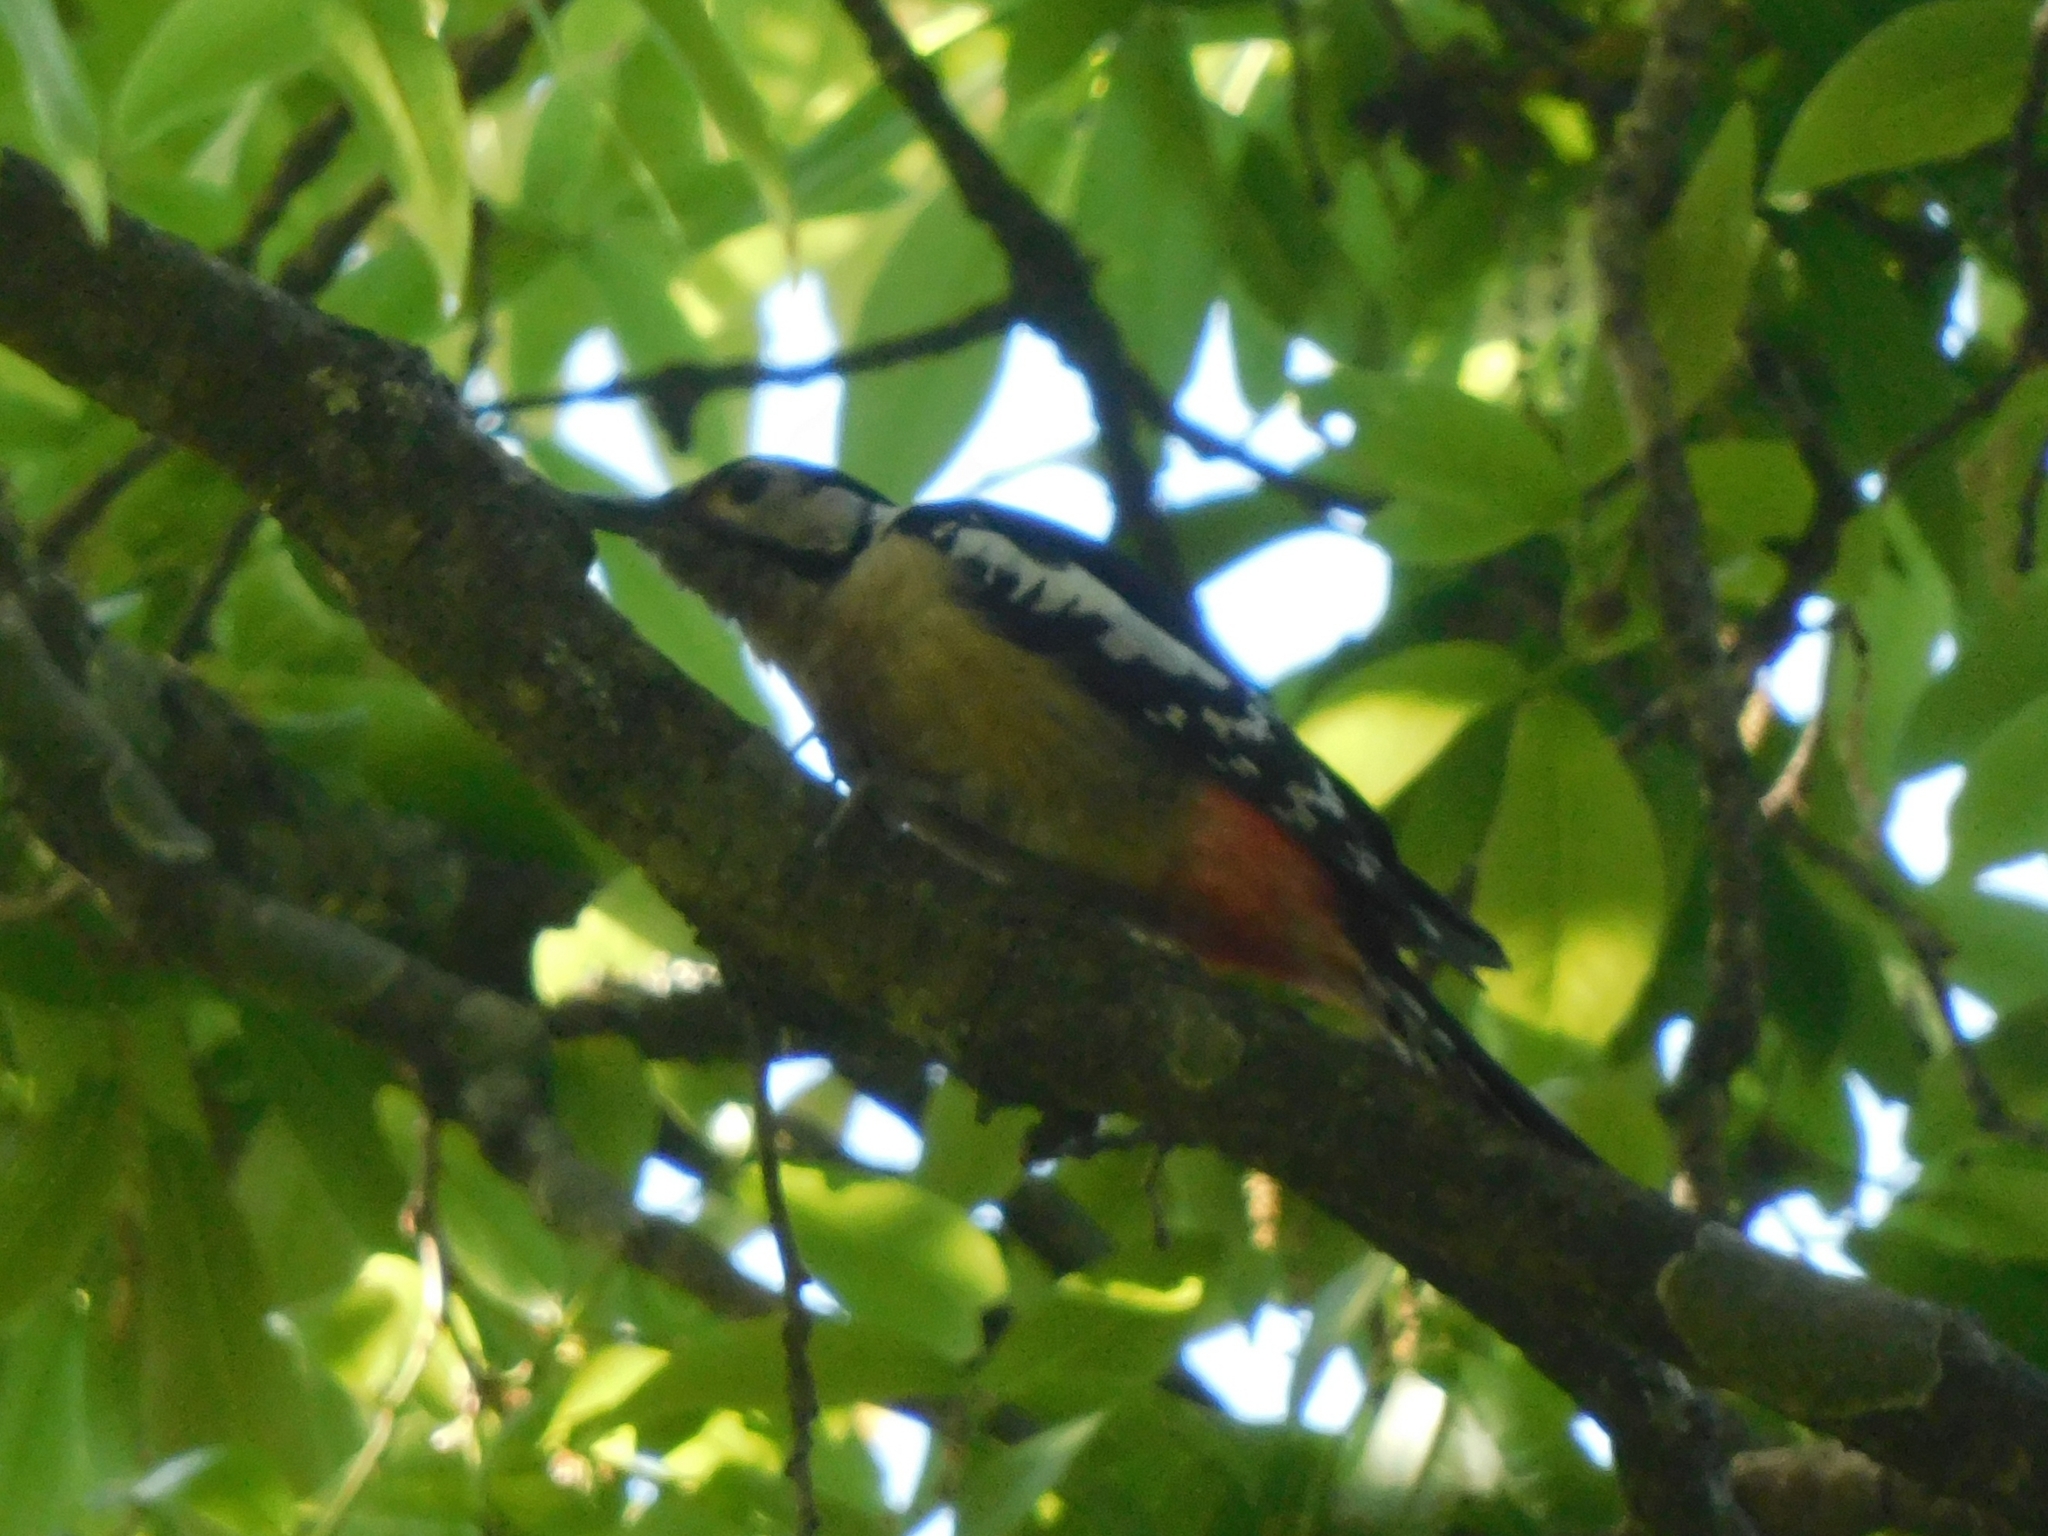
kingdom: Animalia
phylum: Chordata
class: Aves
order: Piciformes
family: Picidae
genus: Dendrocopos
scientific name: Dendrocopos himalayensis
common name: Himalayan woodpecker
